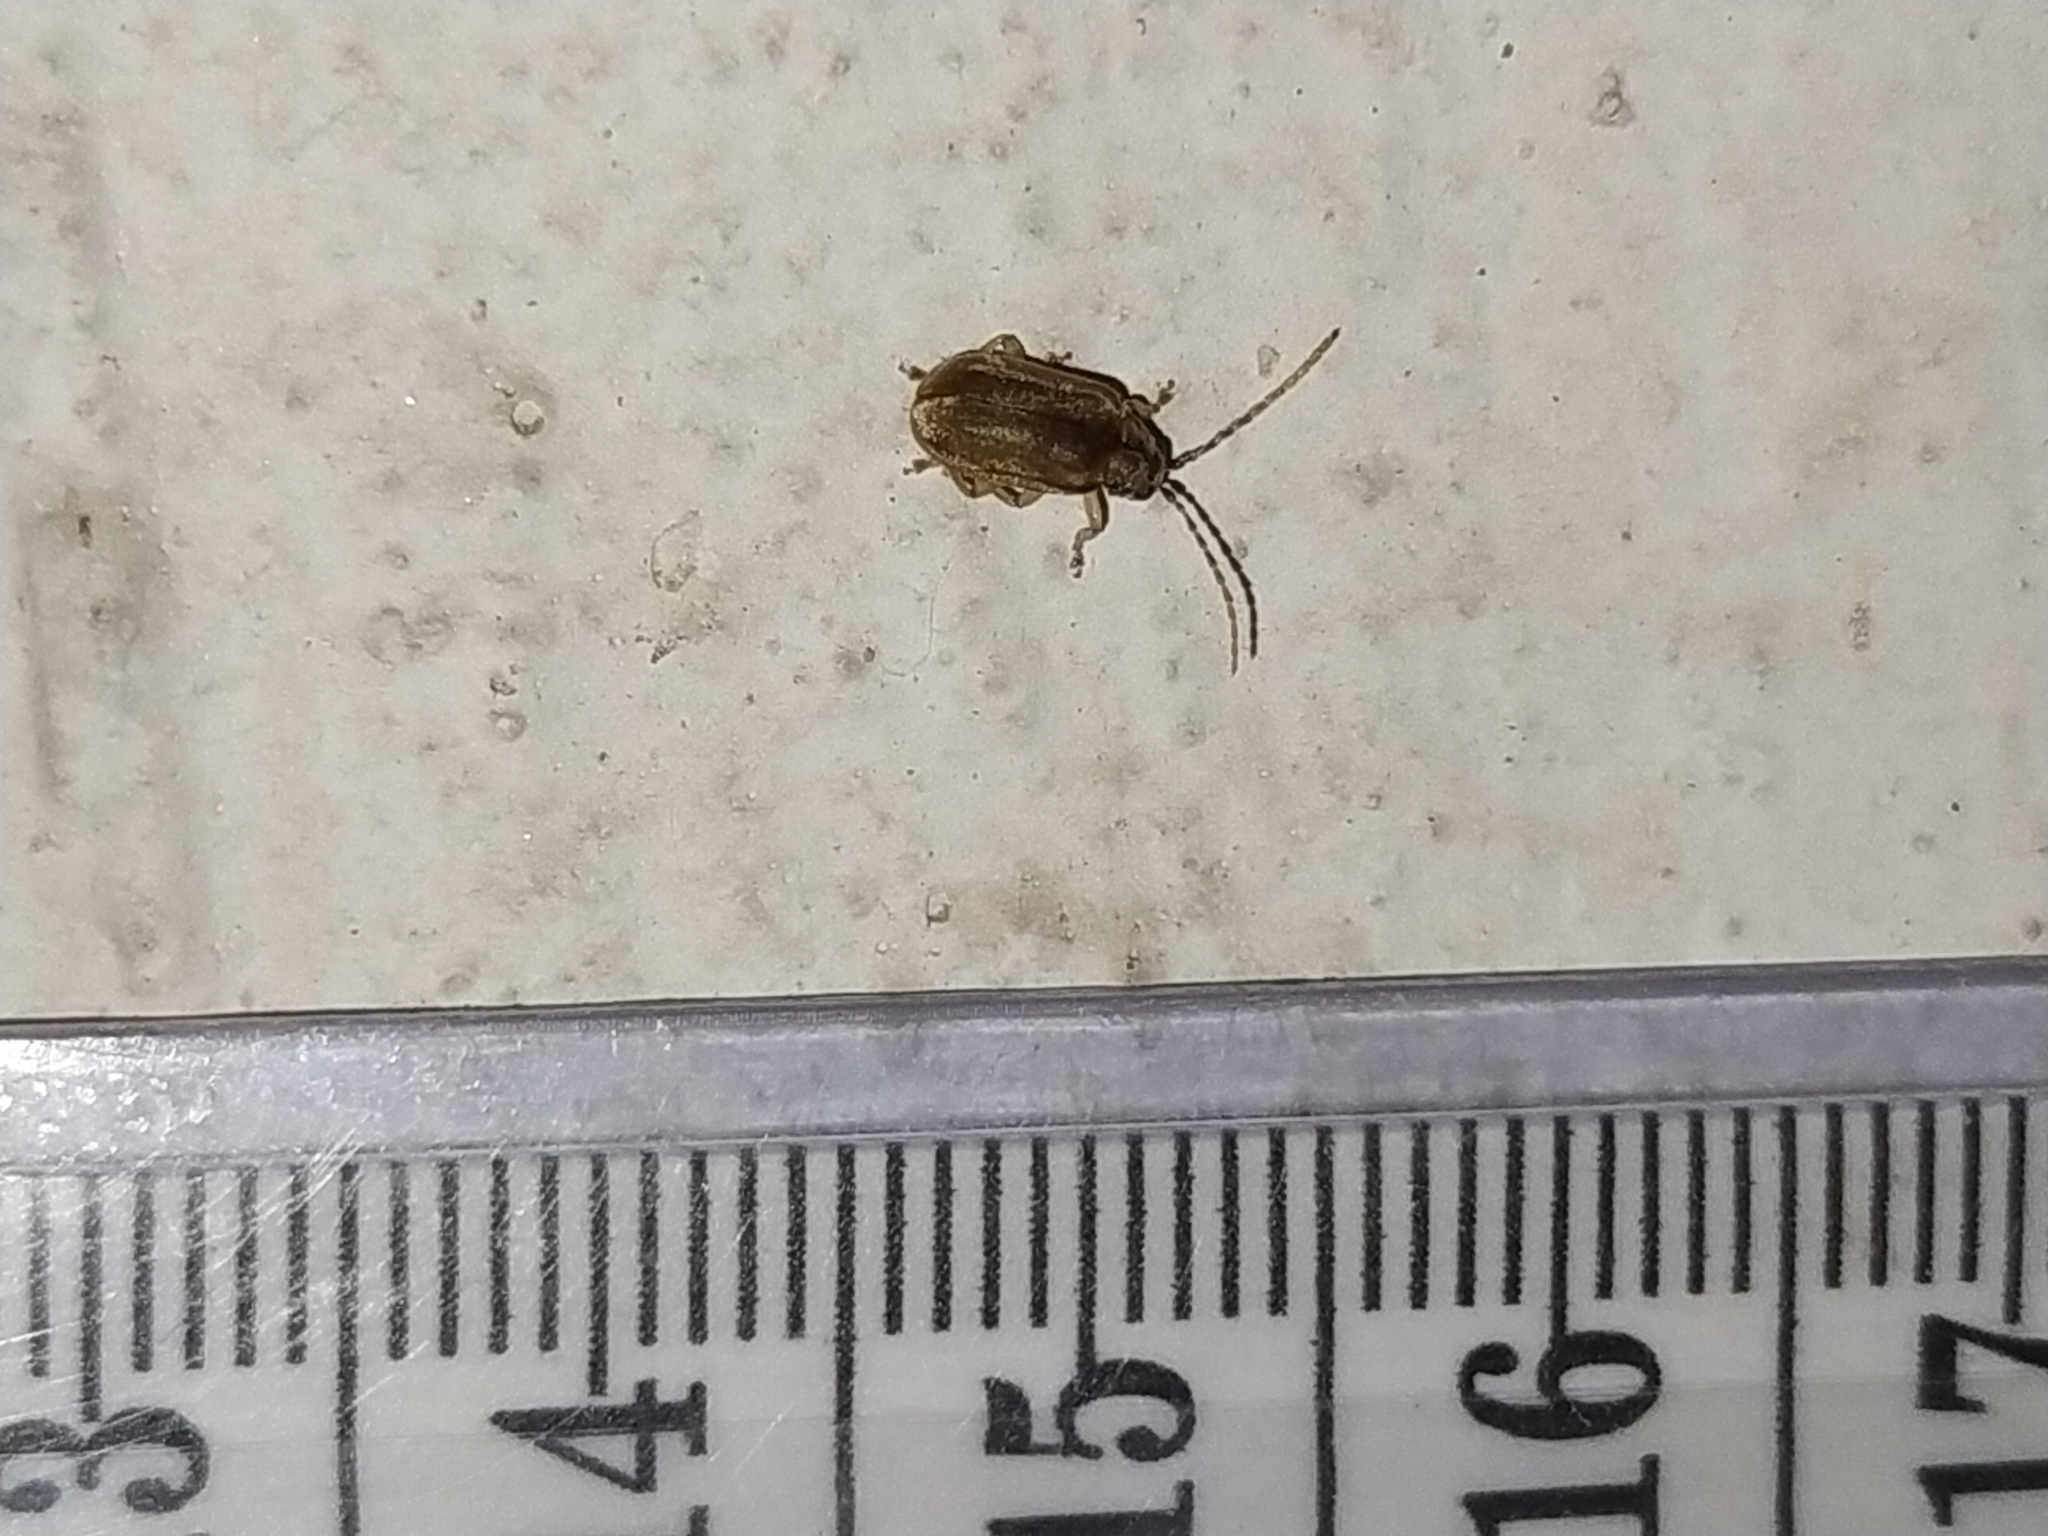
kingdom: Animalia
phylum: Arthropoda
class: Insecta
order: Coleoptera
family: Chrysomelidae
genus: Pyrrhalta
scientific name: Pyrrhalta viburni
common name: Guelder-rose leaf beetle
